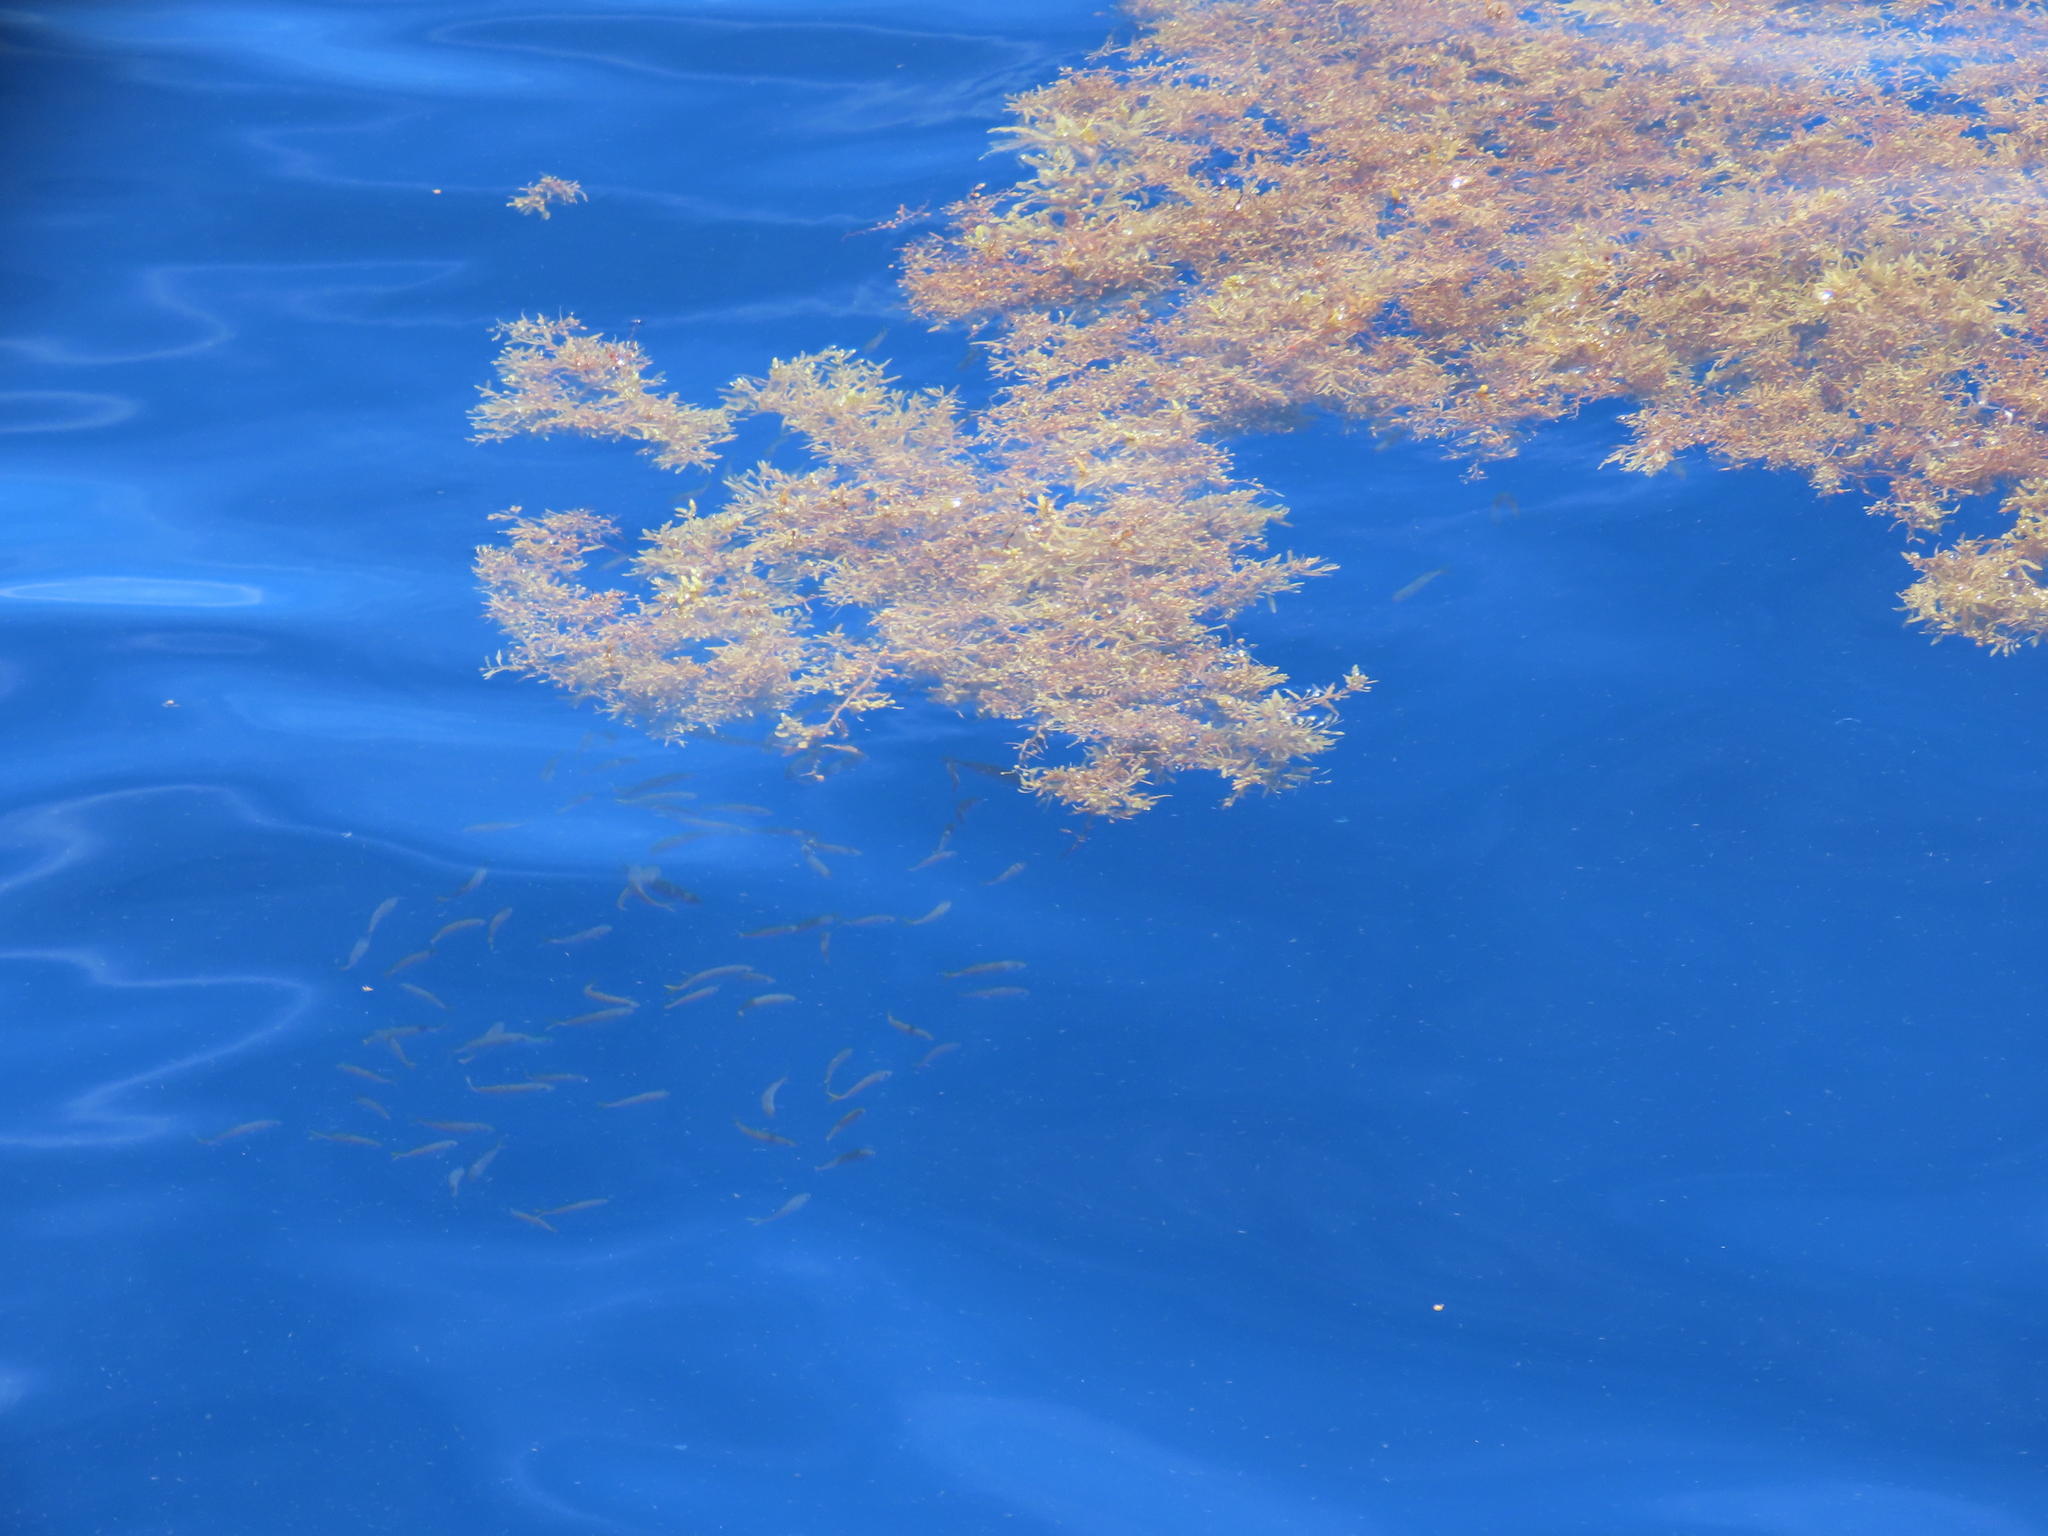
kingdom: Chromista
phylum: Ochrophyta
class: Phaeophyceae
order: Fucales
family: Sargassaceae
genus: Sargassum
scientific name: Sargassum fluitans
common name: Sargassum seaweed
